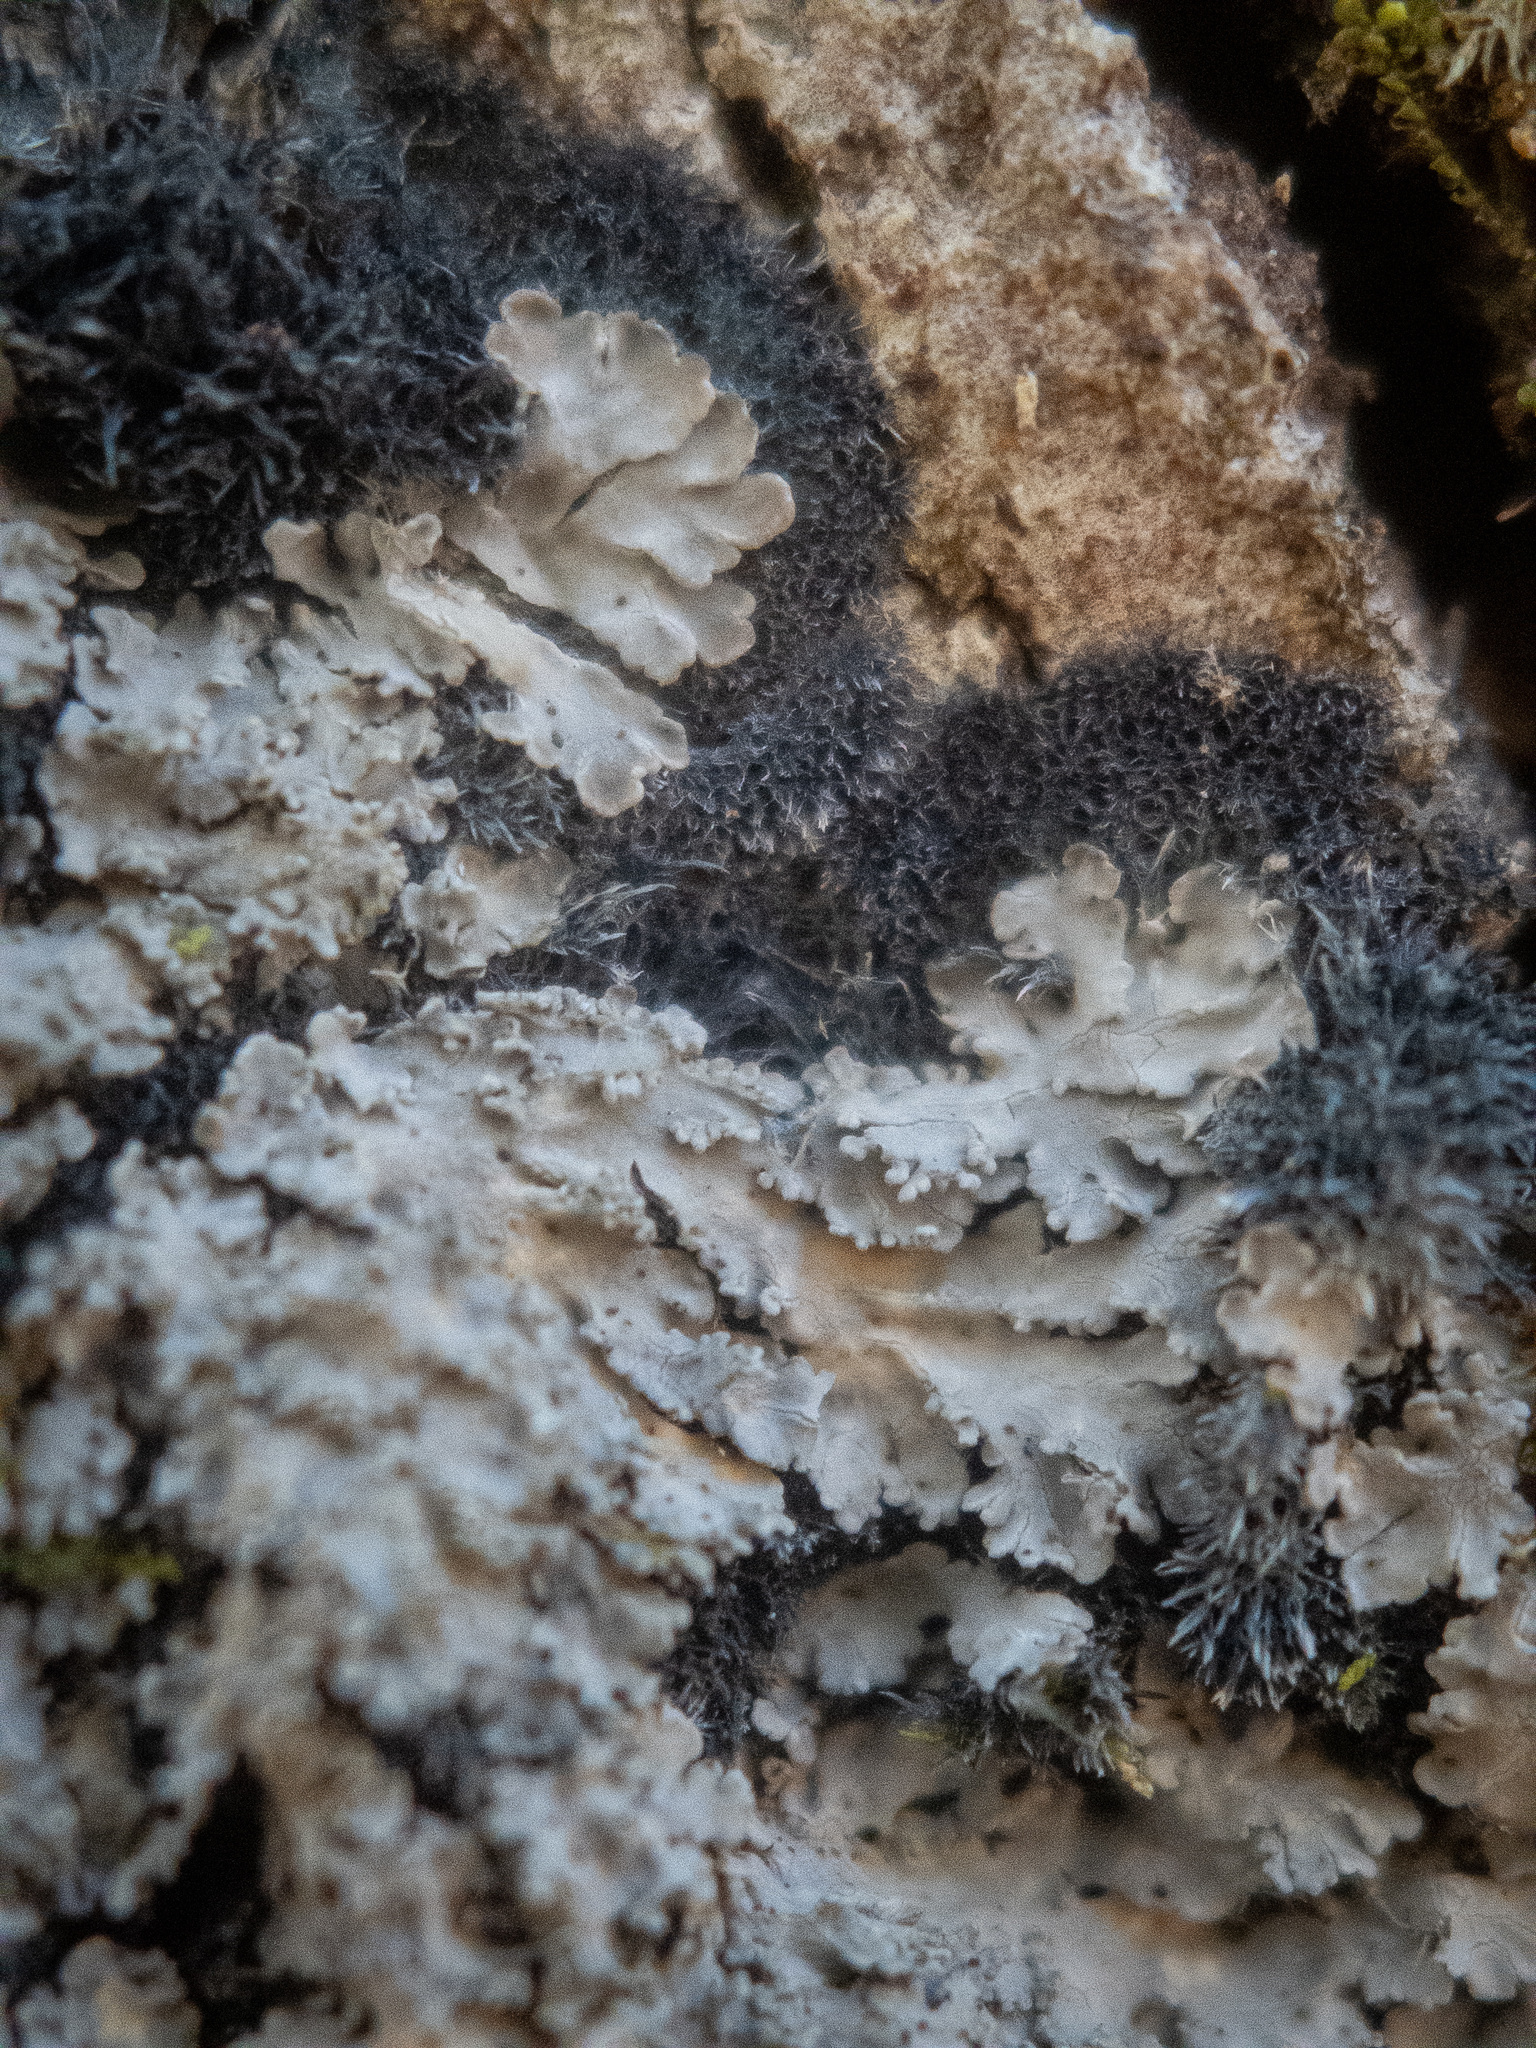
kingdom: Fungi
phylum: Ascomycota
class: Lecanoromycetes
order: Peltigerales
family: Pannariaceae
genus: Parmeliella
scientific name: Parmeliella appalachensis
